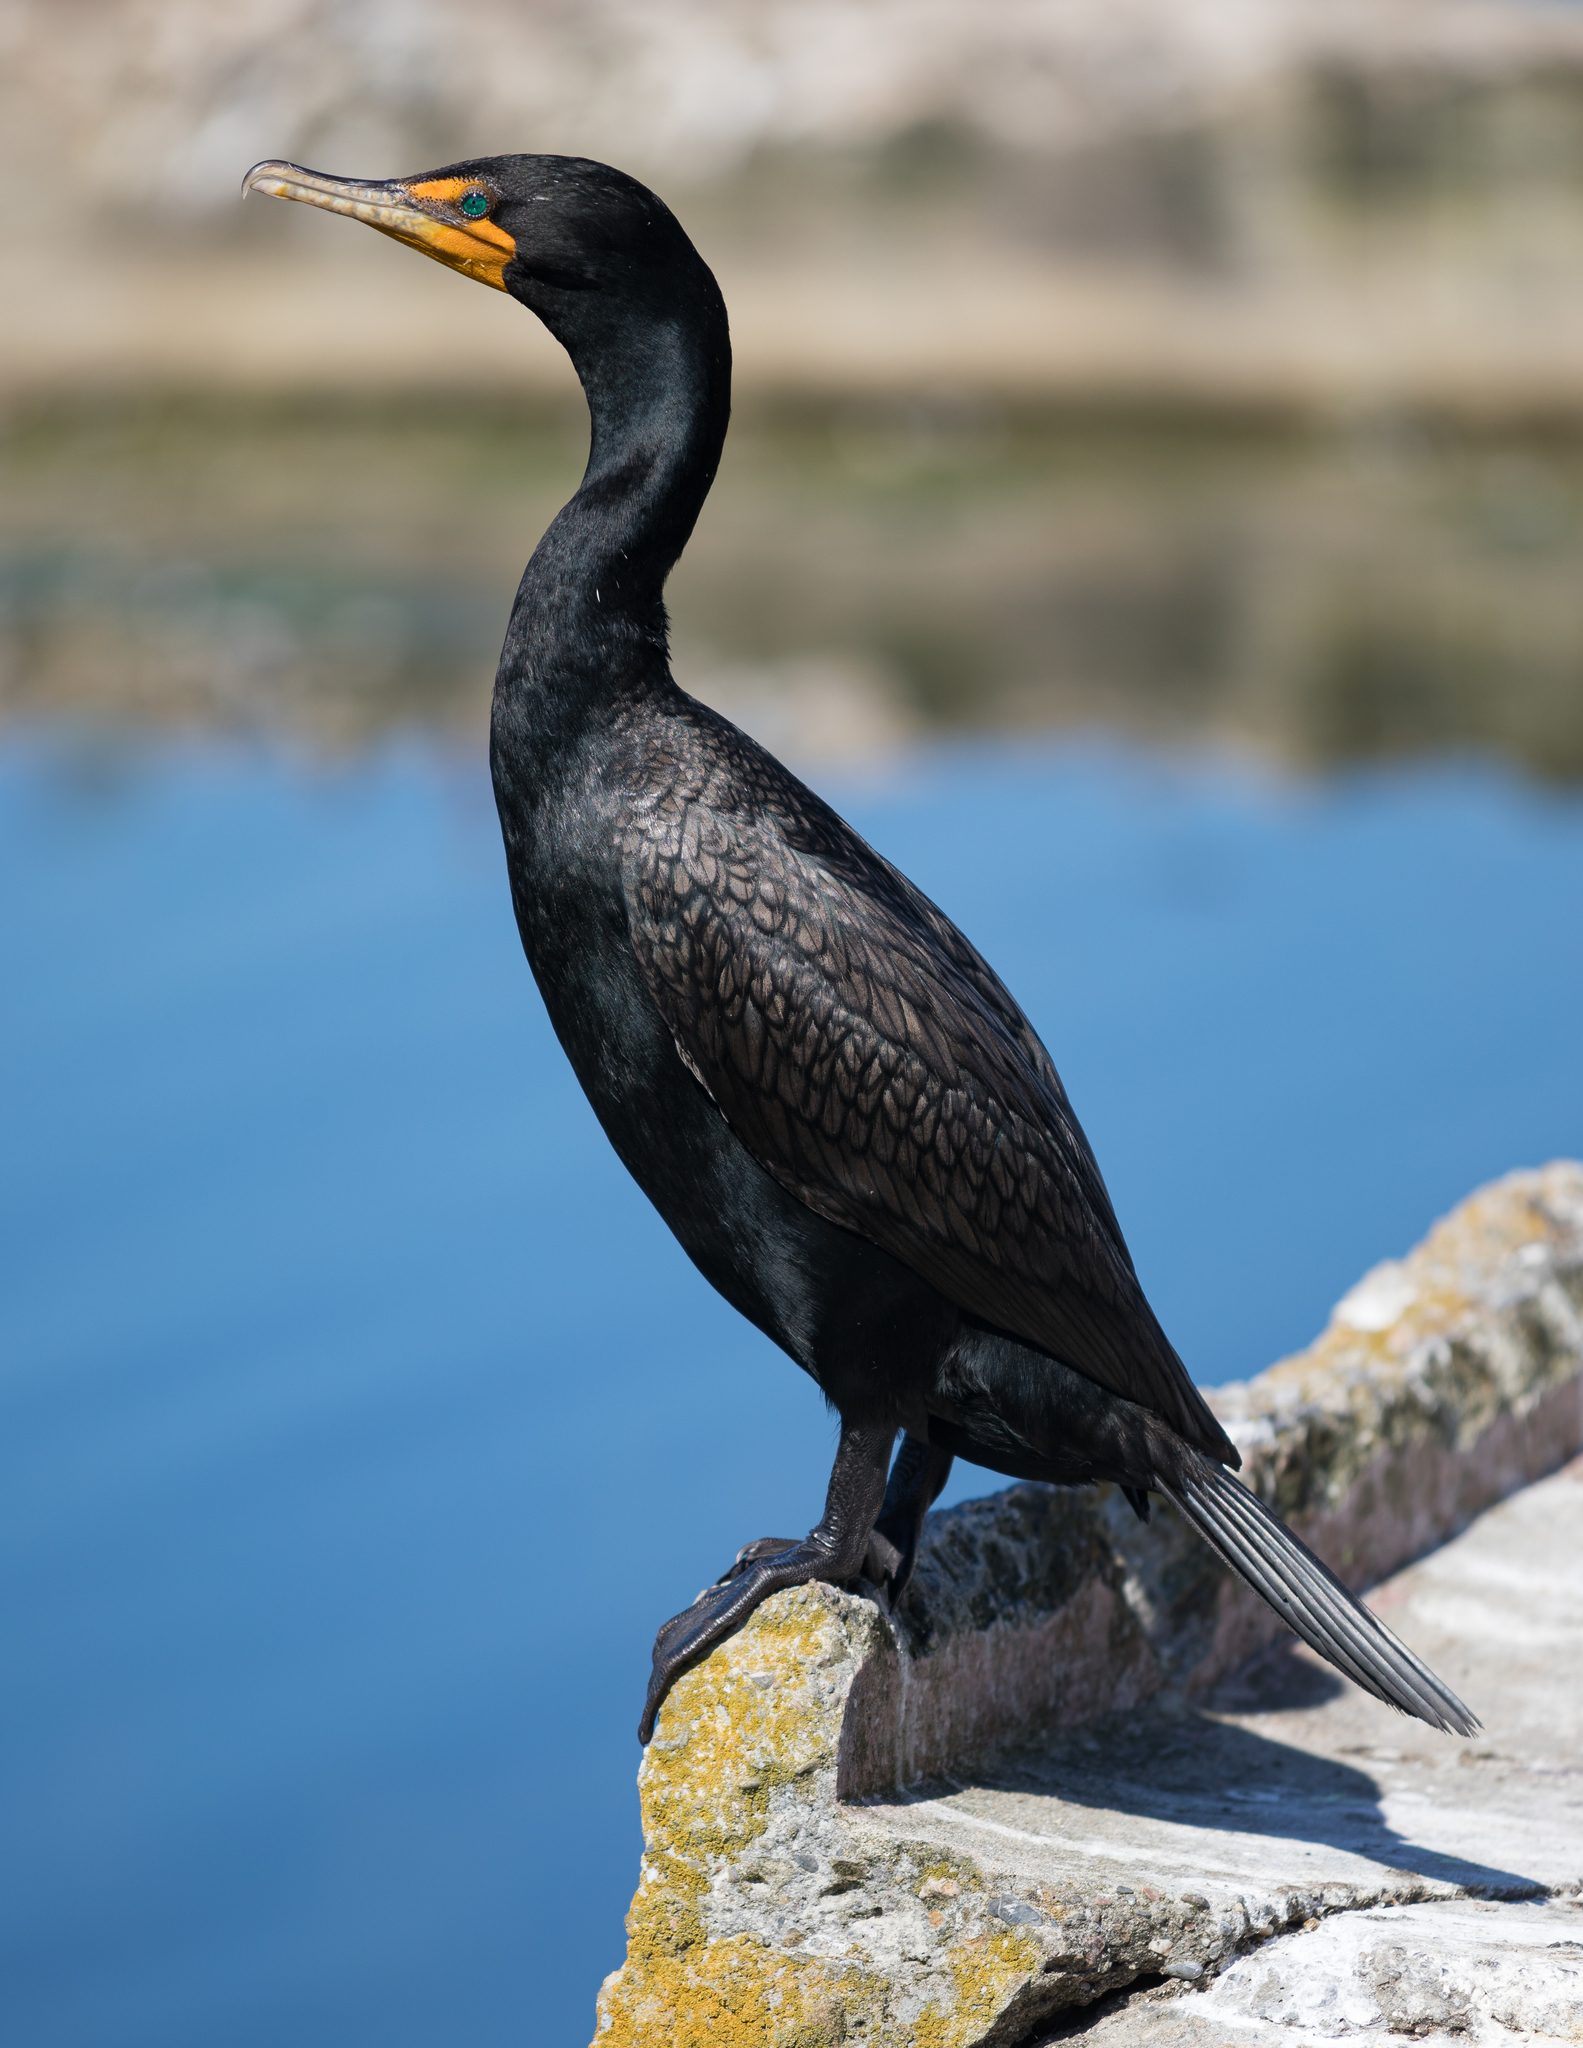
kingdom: Animalia
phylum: Chordata
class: Aves
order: Suliformes
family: Phalacrocoracidae
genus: Phalacrocorax
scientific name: Phalacrocorax auritus
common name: Double-crested cormorant
